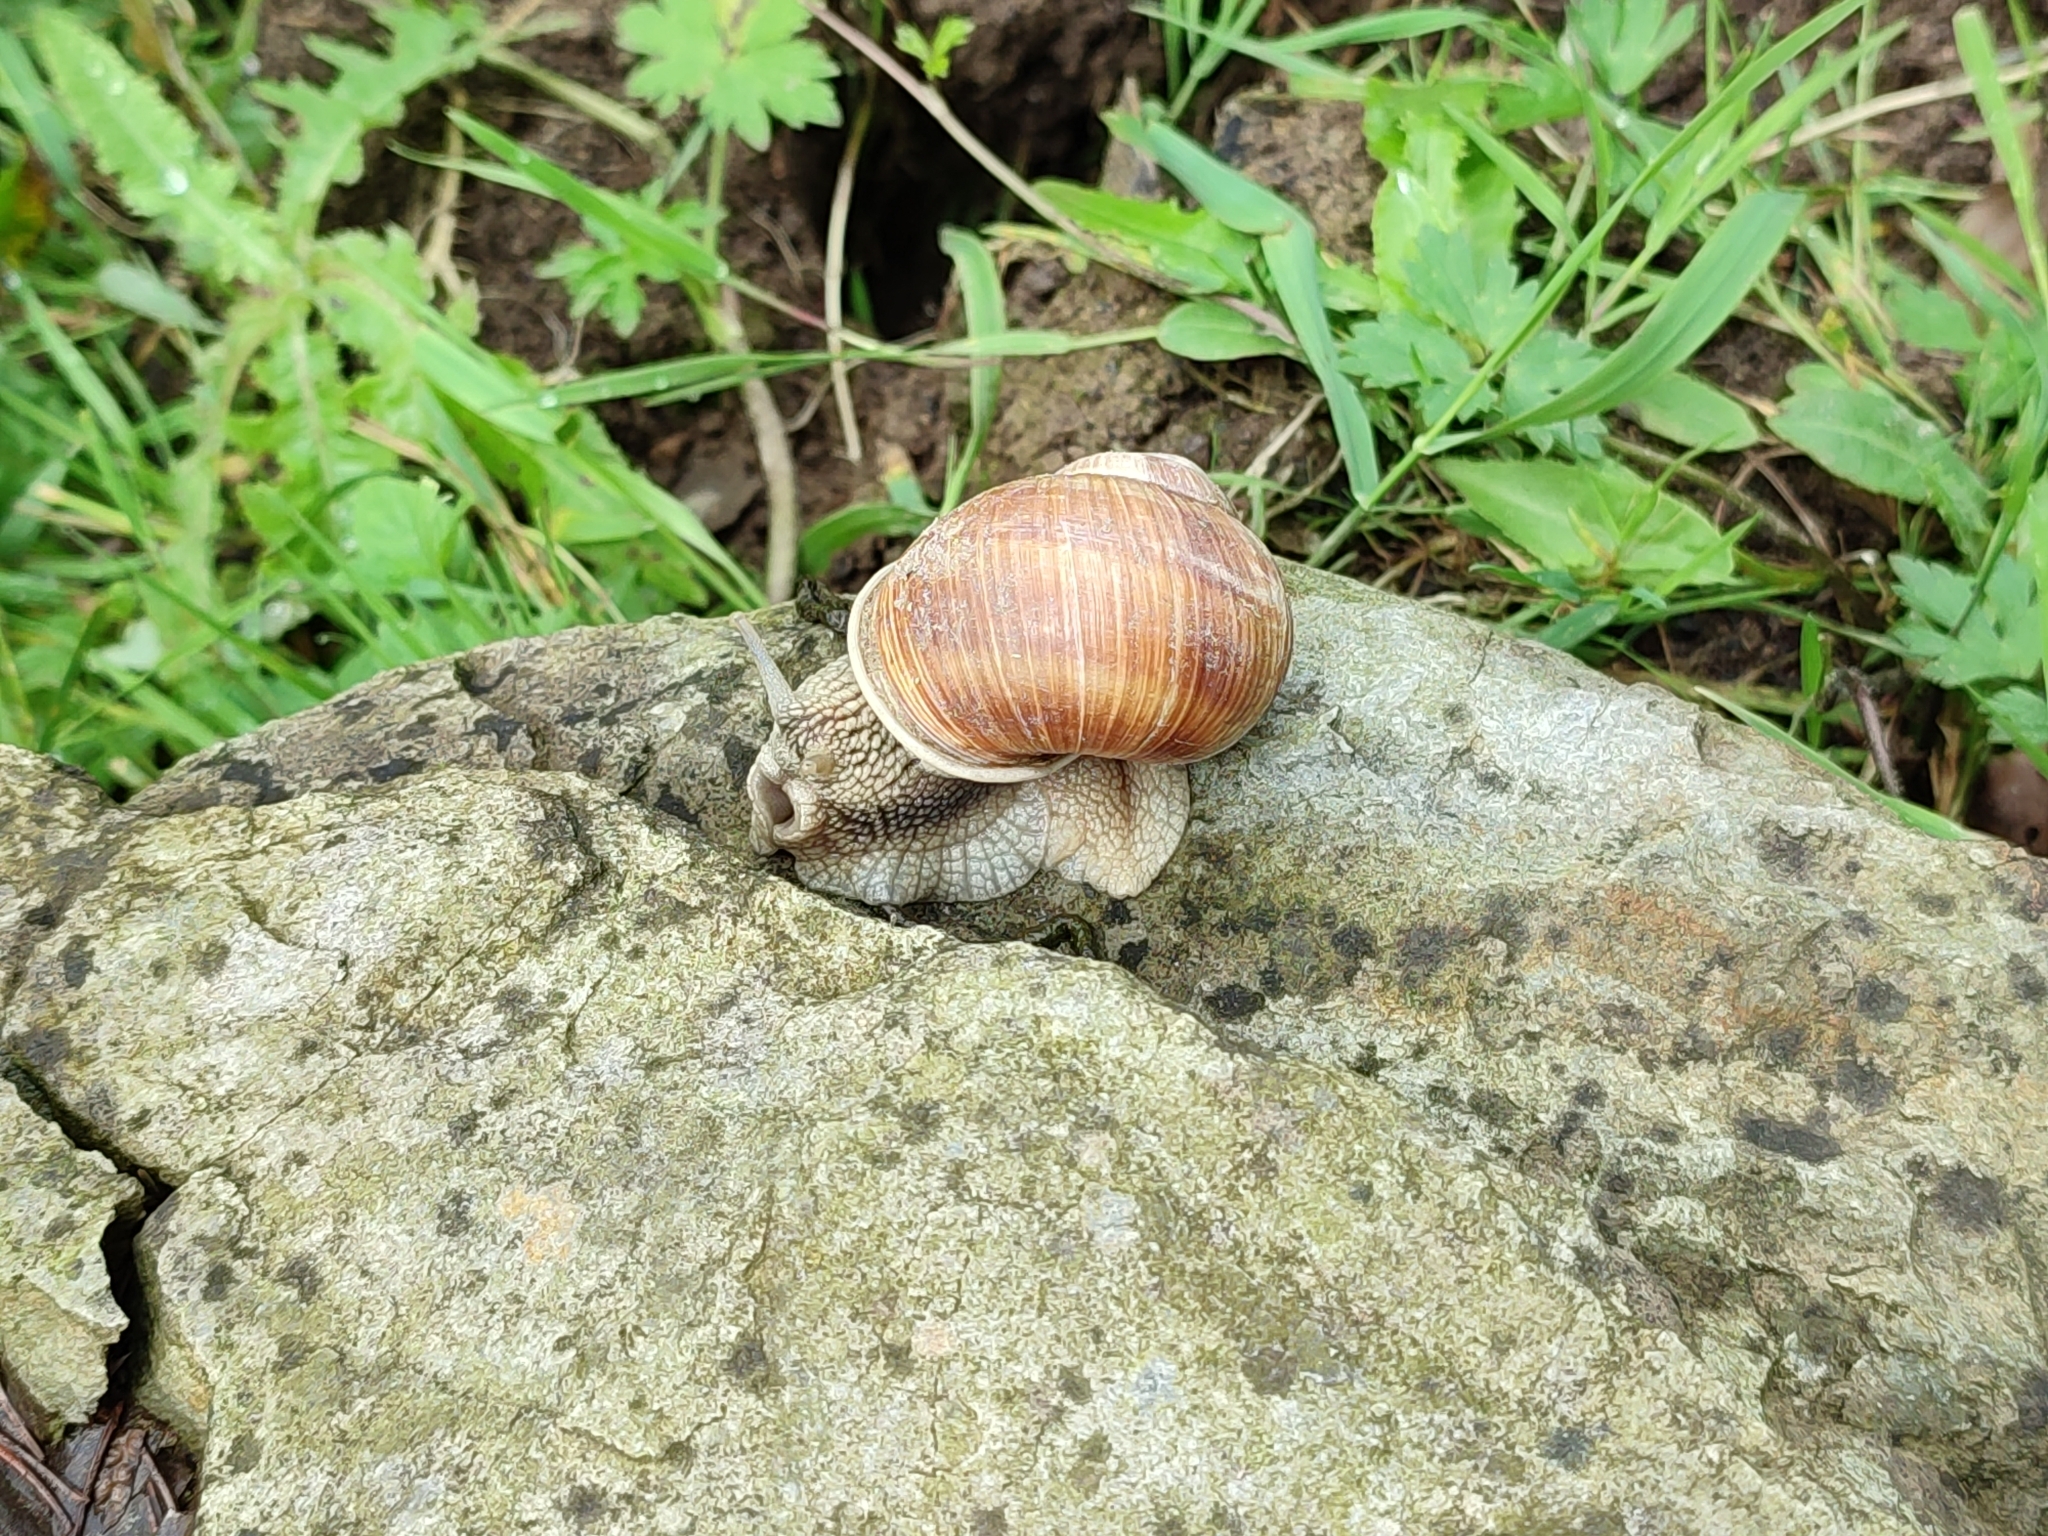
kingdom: Animalia
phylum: Mollusca
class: Gastropoda
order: Stylommatophora
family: Helicidae
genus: Helix
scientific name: Helix pomatia
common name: Roman snail
